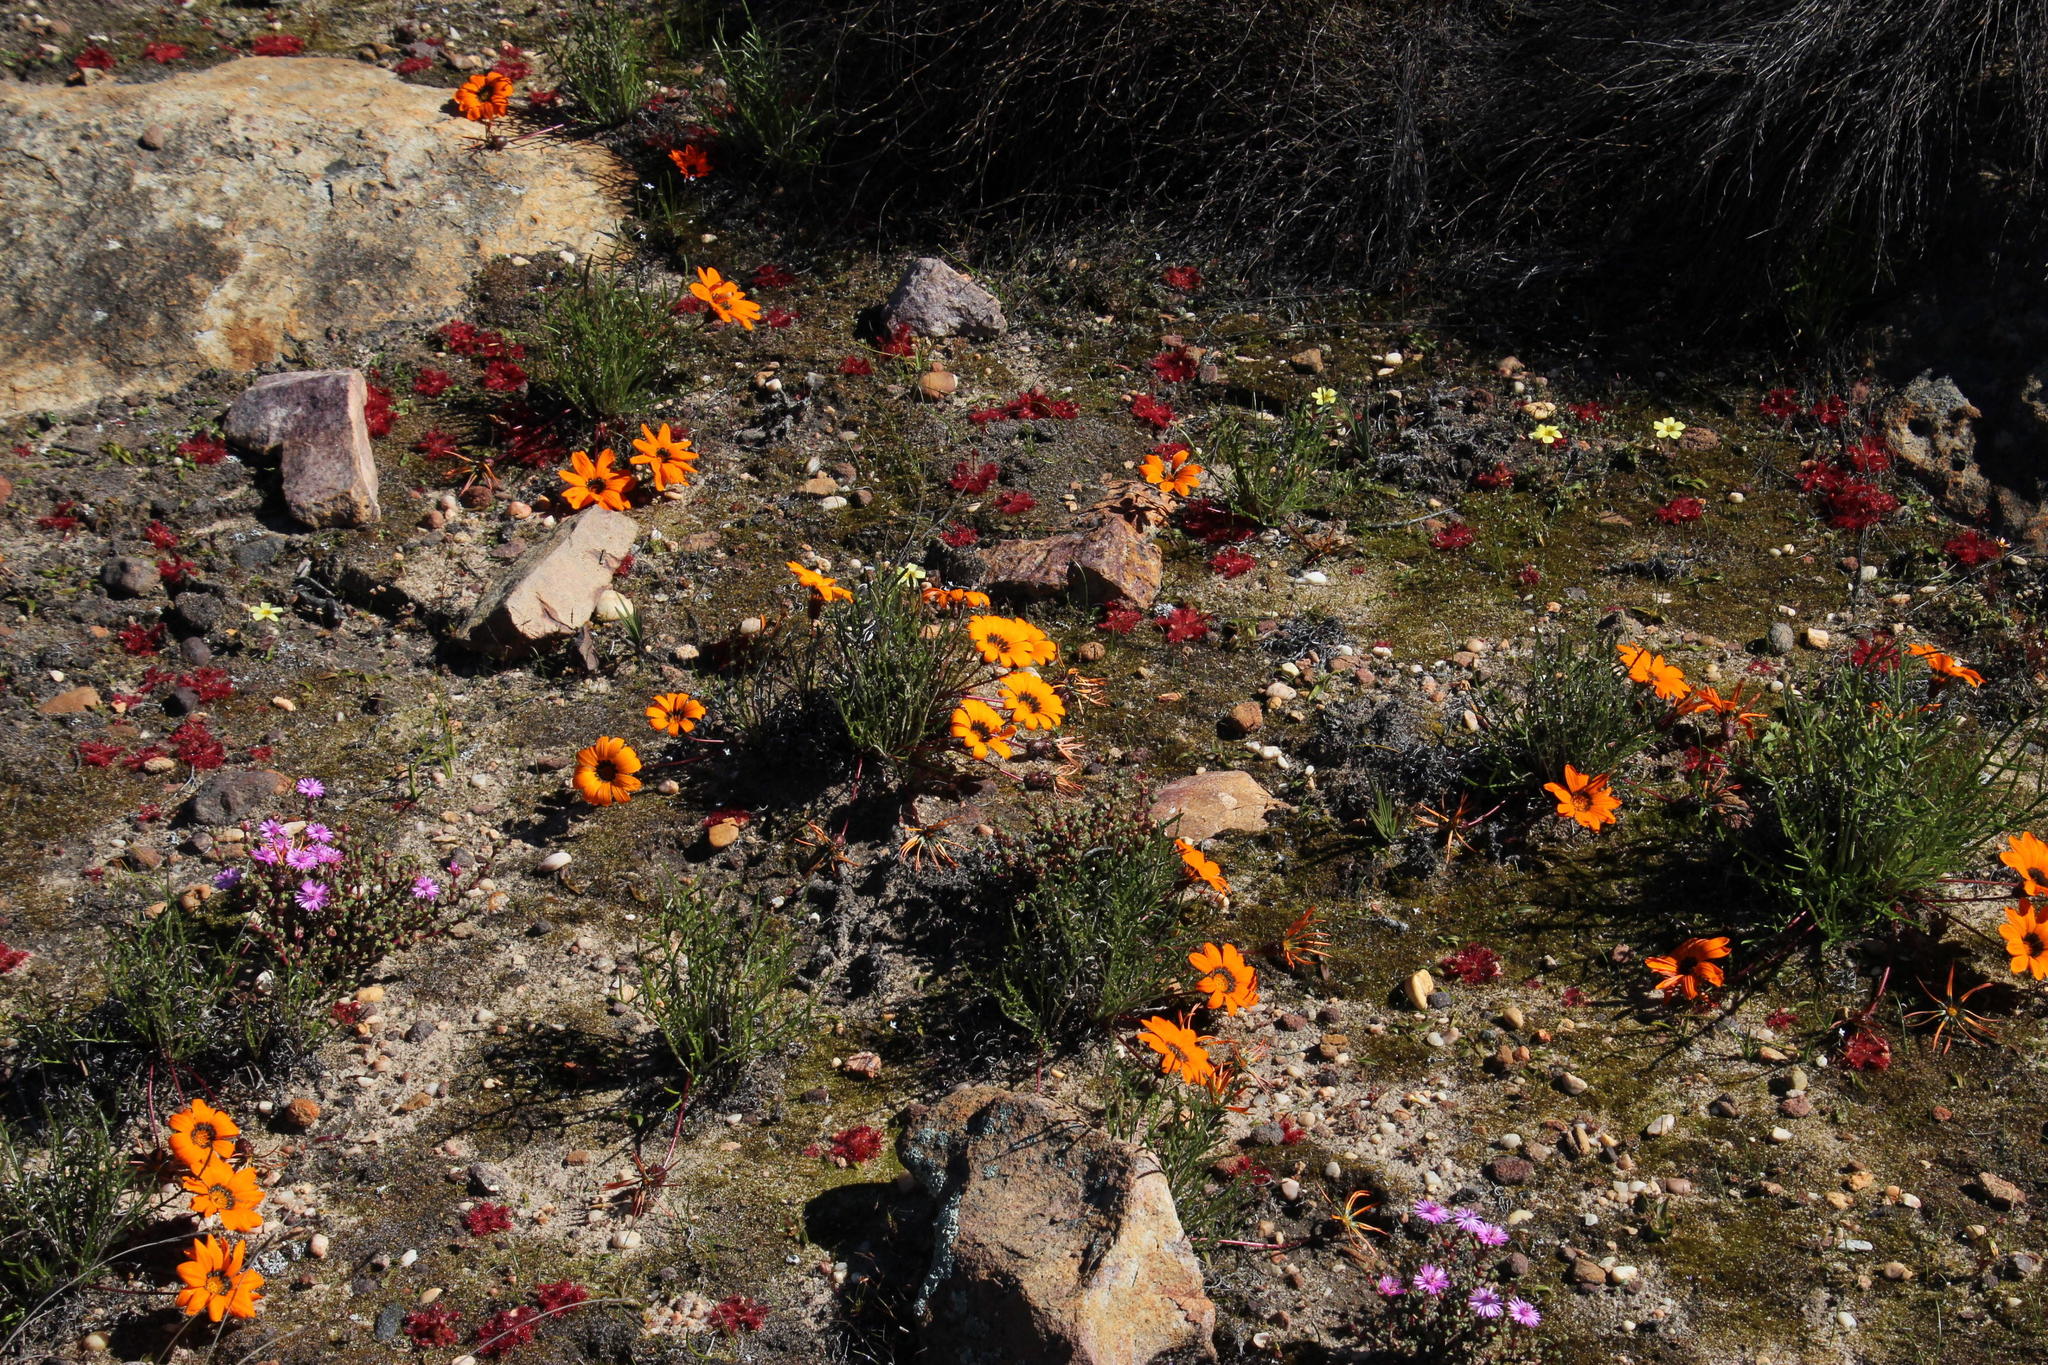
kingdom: Plantae
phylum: Tracheophyta
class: Magnoliopsida
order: Caryophyllales
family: Droseraceae
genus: Drosera
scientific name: Drosera trinervia
